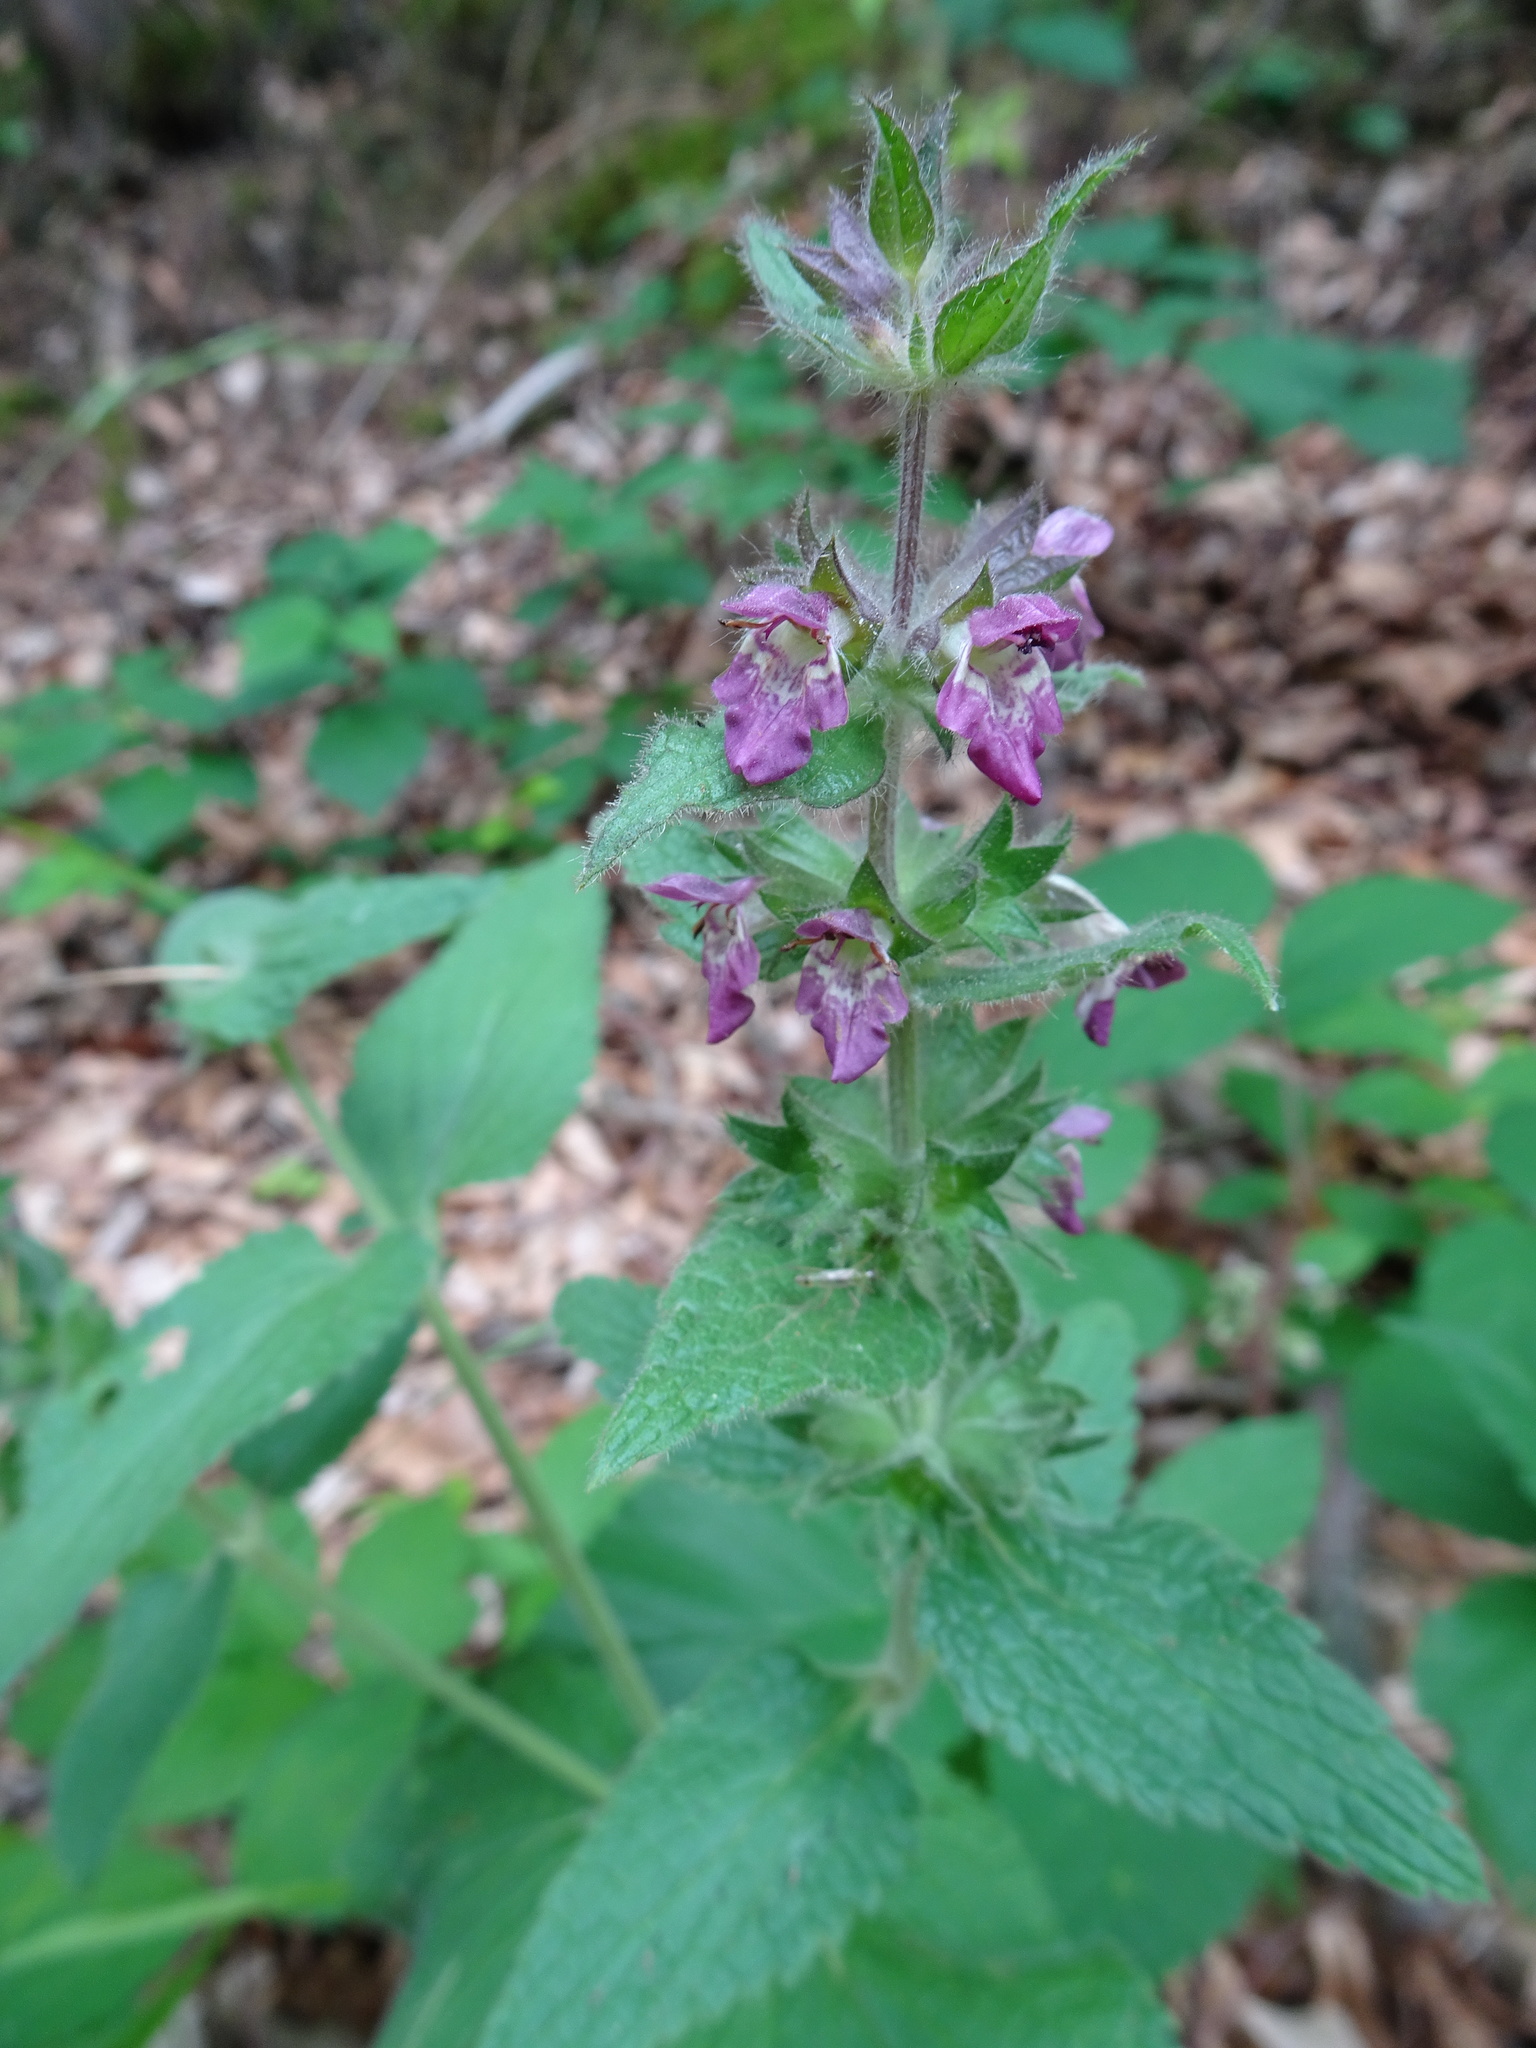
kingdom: Plantae
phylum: Tracheophyta
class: Magnoliopsida
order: Lamiales
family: Lamiaceae
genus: Stachys
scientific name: Stachys sylvatica
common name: Hedge woundwort
